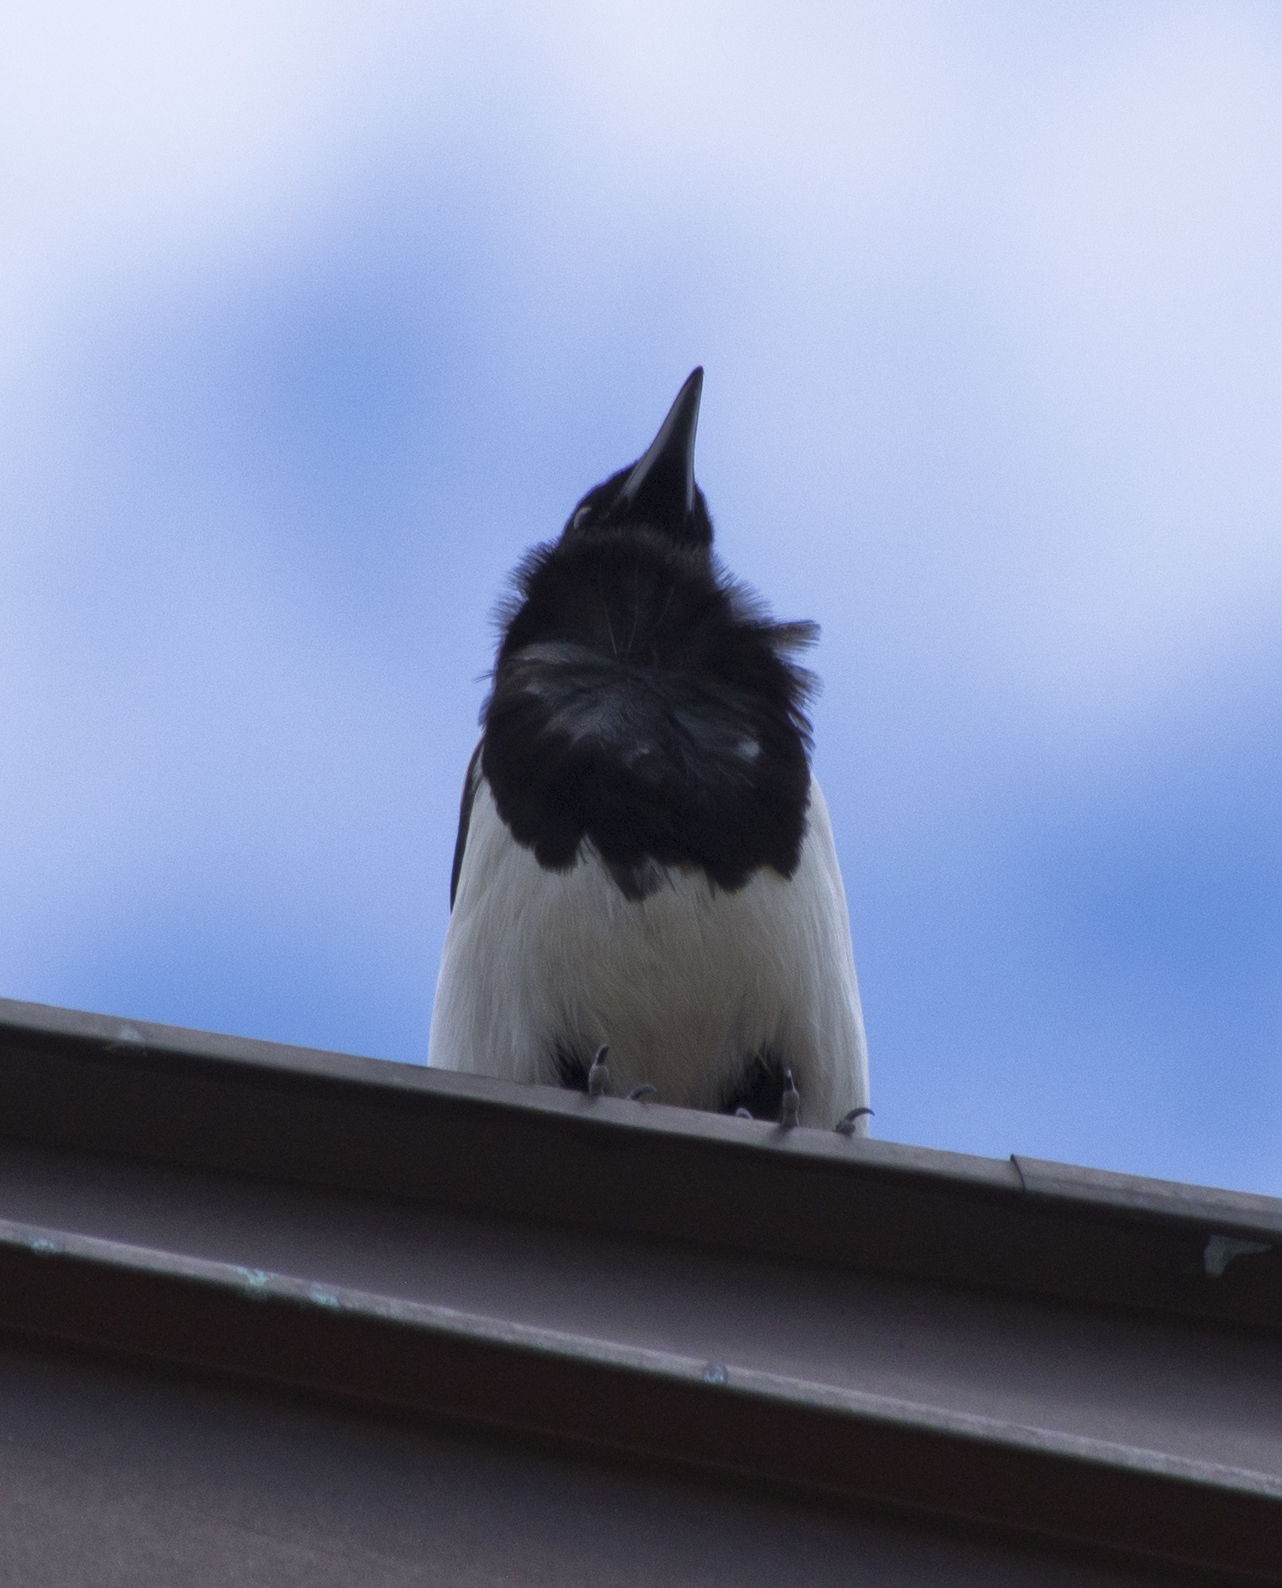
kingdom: Animalia
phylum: Chordata
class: Aves
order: Passeriformes
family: Corvidae
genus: Pica
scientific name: Pica hudsonia
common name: Black-billed magpie
